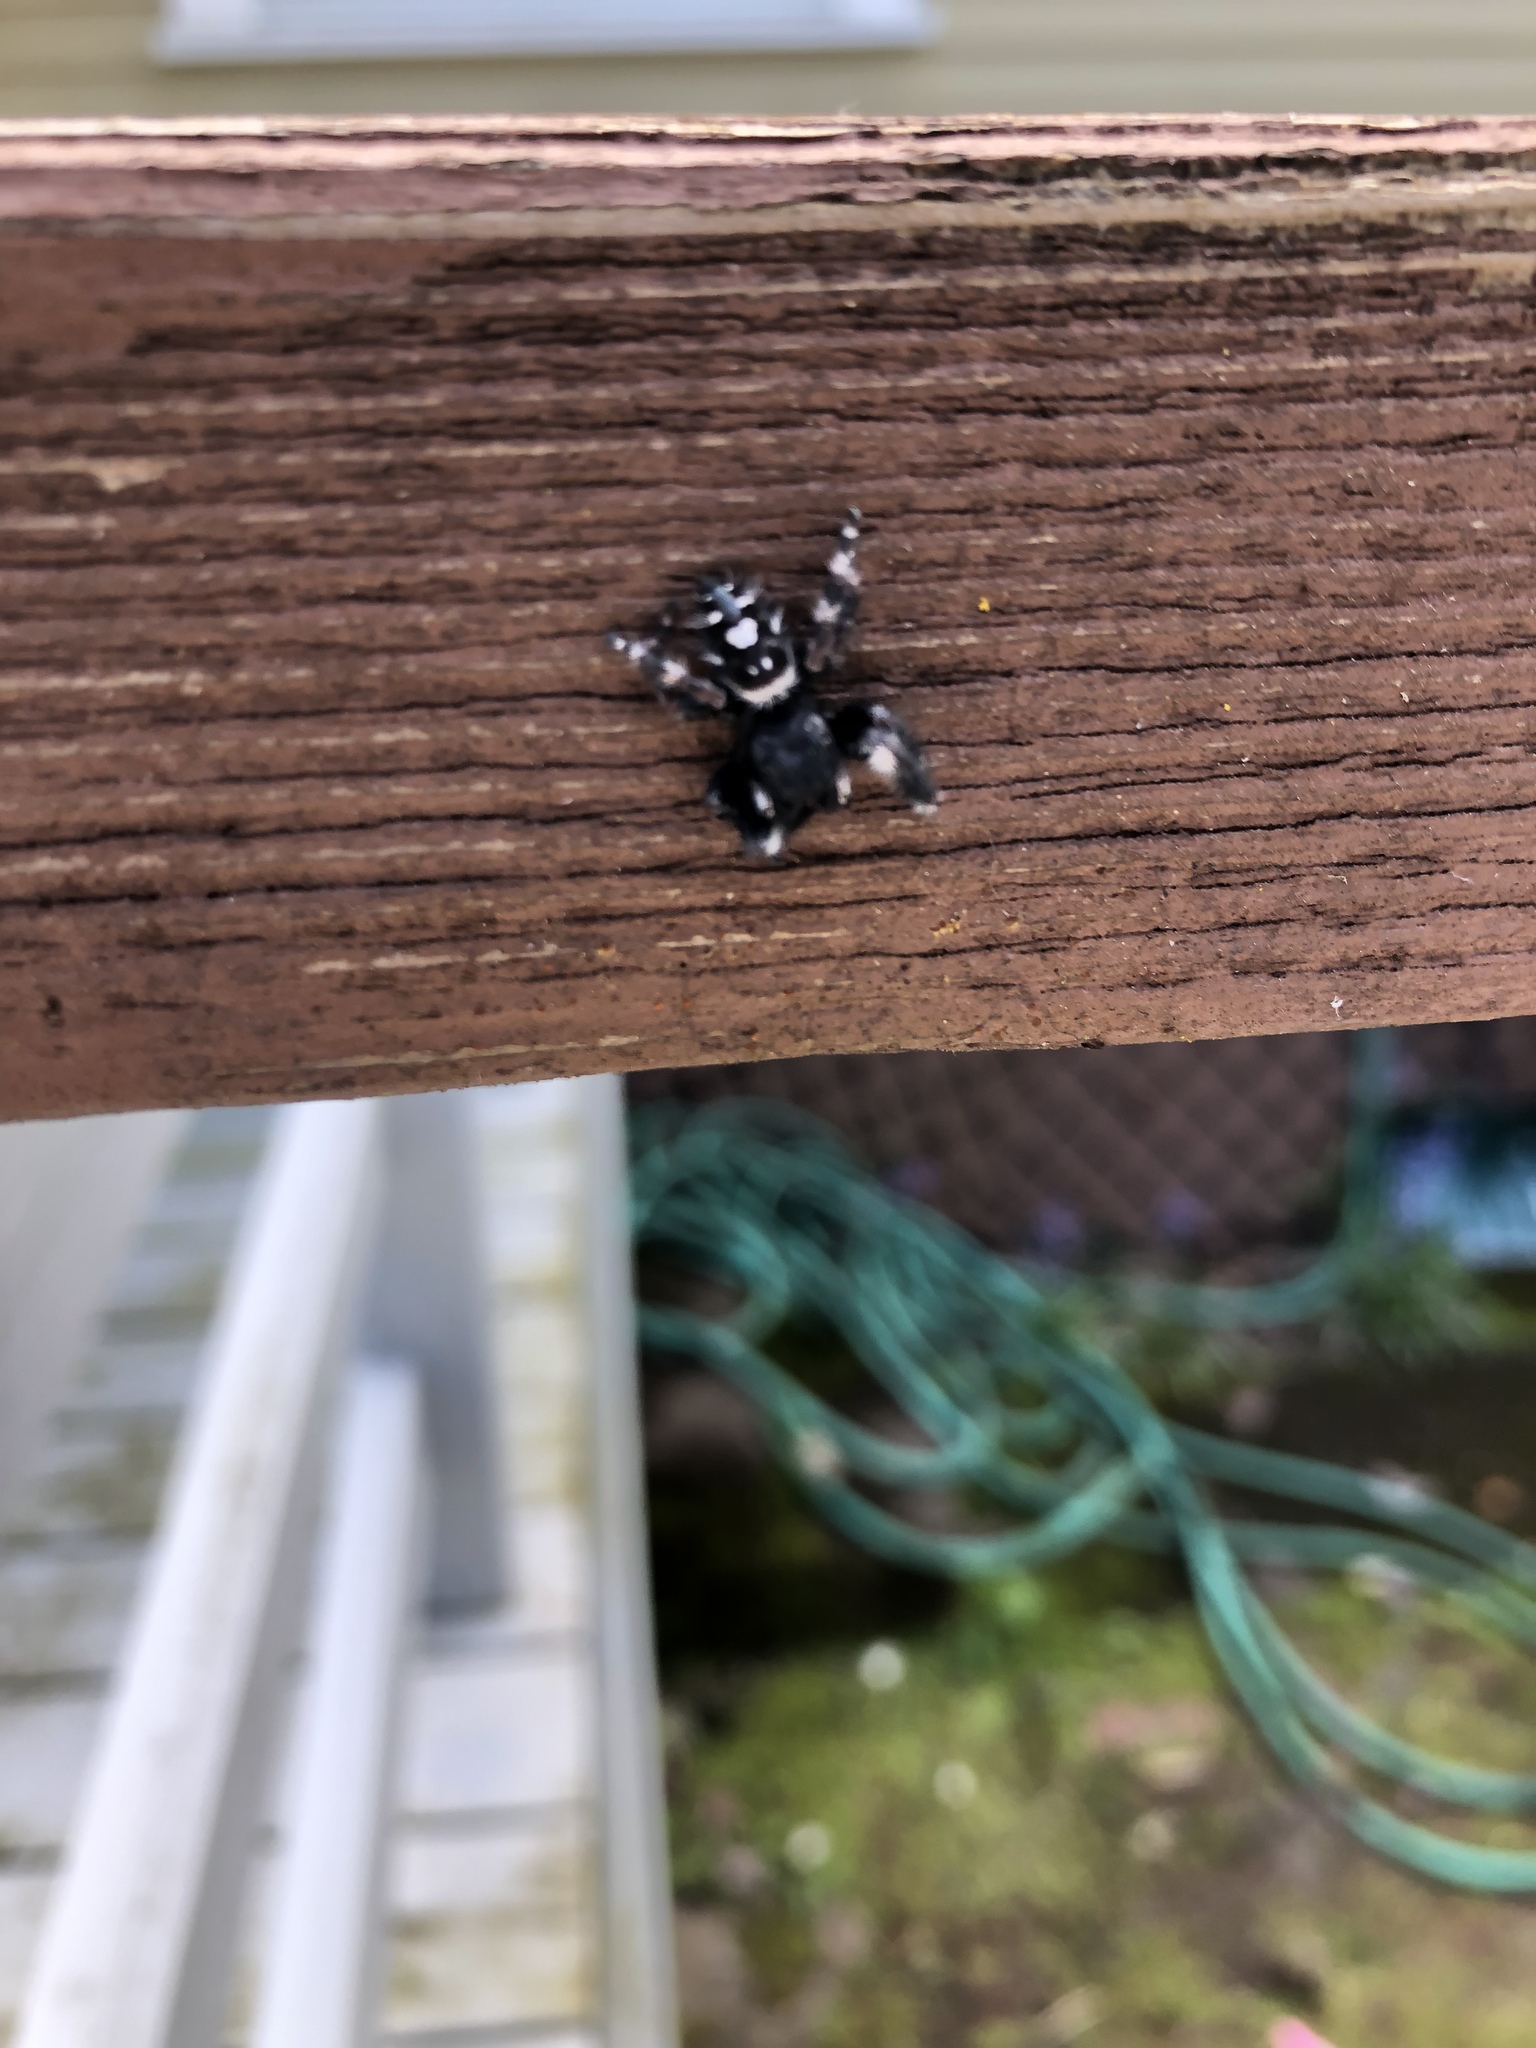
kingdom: Animalia
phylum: Arthropoda
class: Arachnida
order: Araneae
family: Salticidae
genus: Phidippus
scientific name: Phidippus audax
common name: Bold jumper
